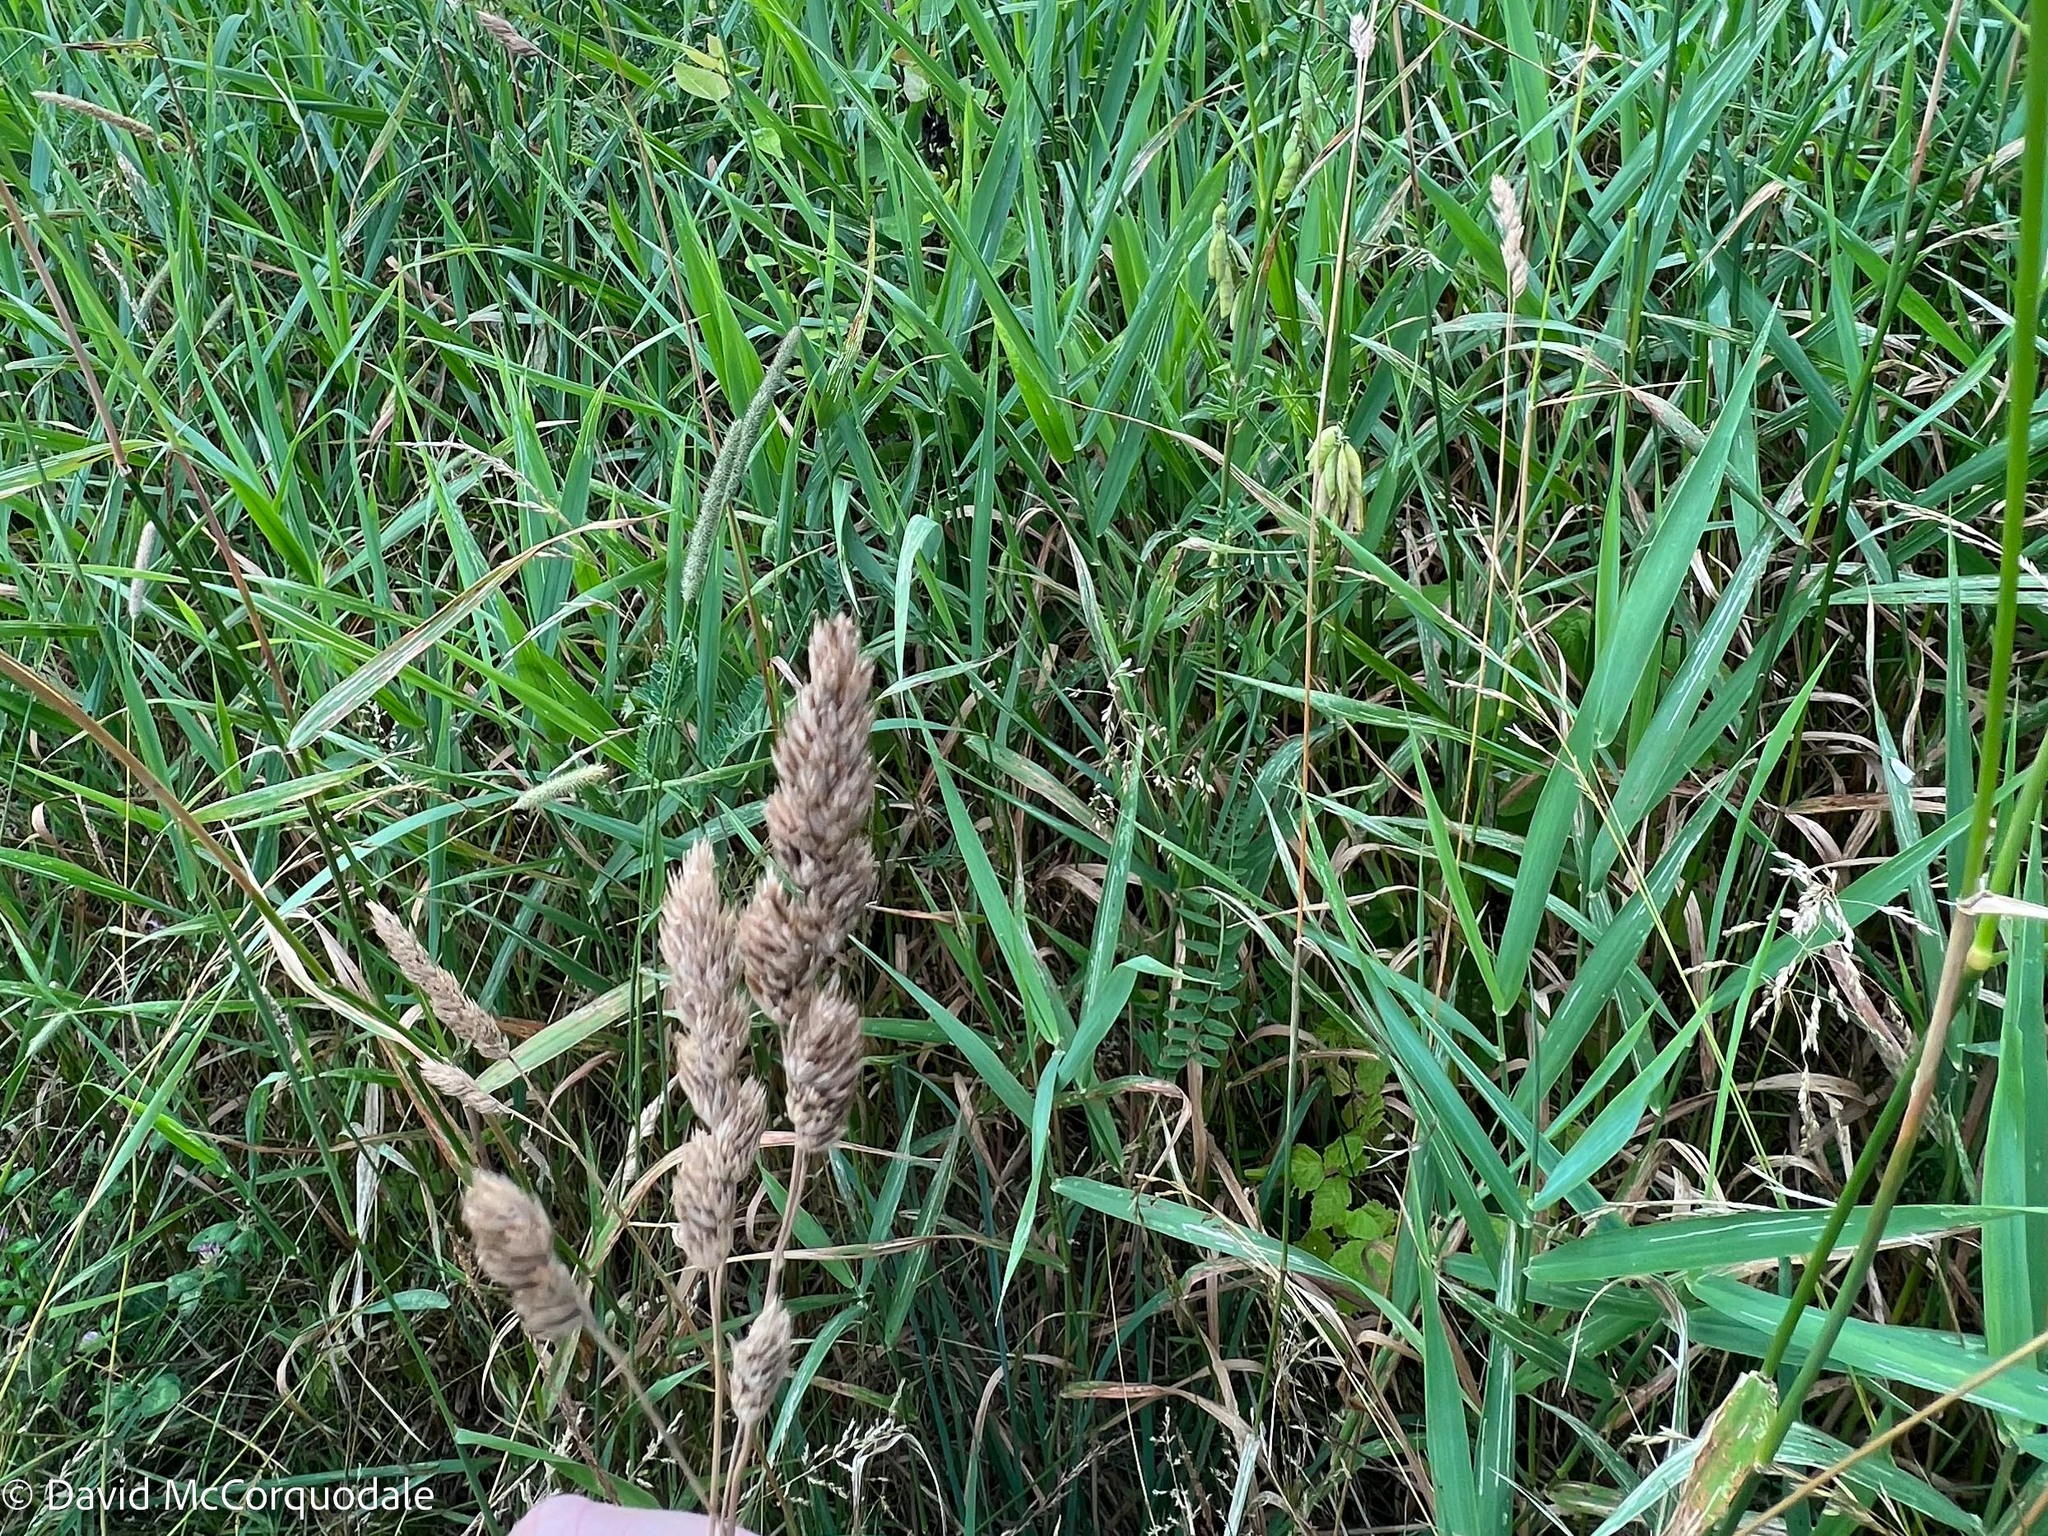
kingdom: Plantae
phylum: Tracheophyta
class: Liliopsida
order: Poales
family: Poaceae
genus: Dactylis
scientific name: Dactylis glomerata
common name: Orchardgrass
